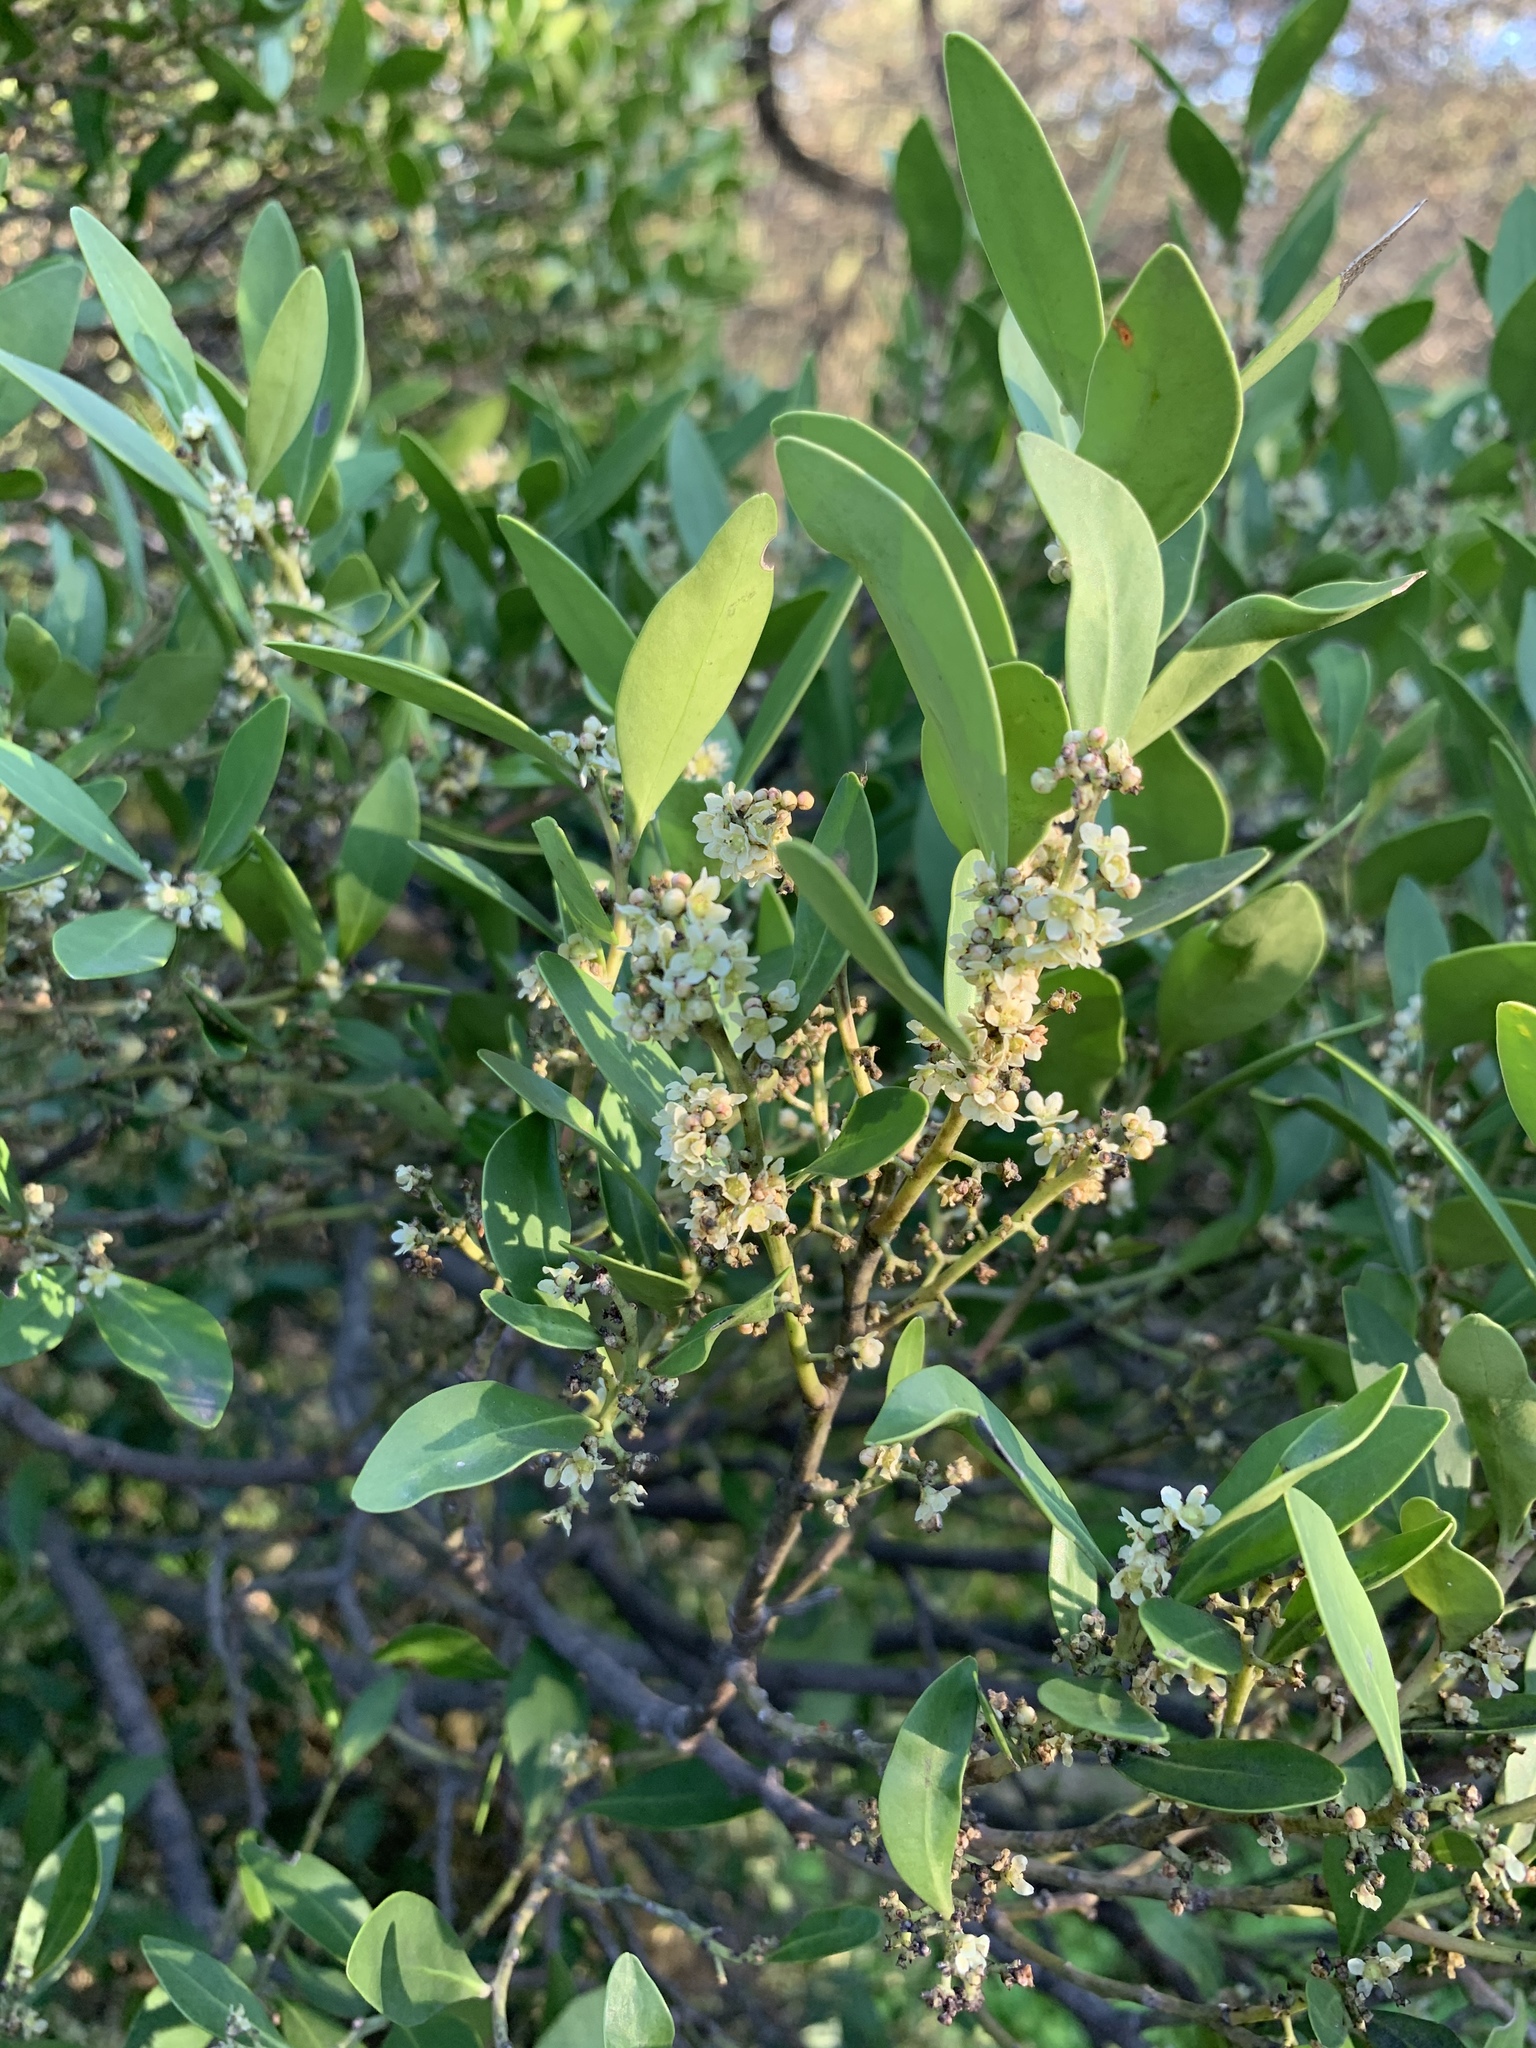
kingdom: Plantae
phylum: Tracheophyta
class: Magnoliopsida
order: Celastrales
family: Celastraceae
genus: Gymnosporia
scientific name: Gymnosporia laurina
